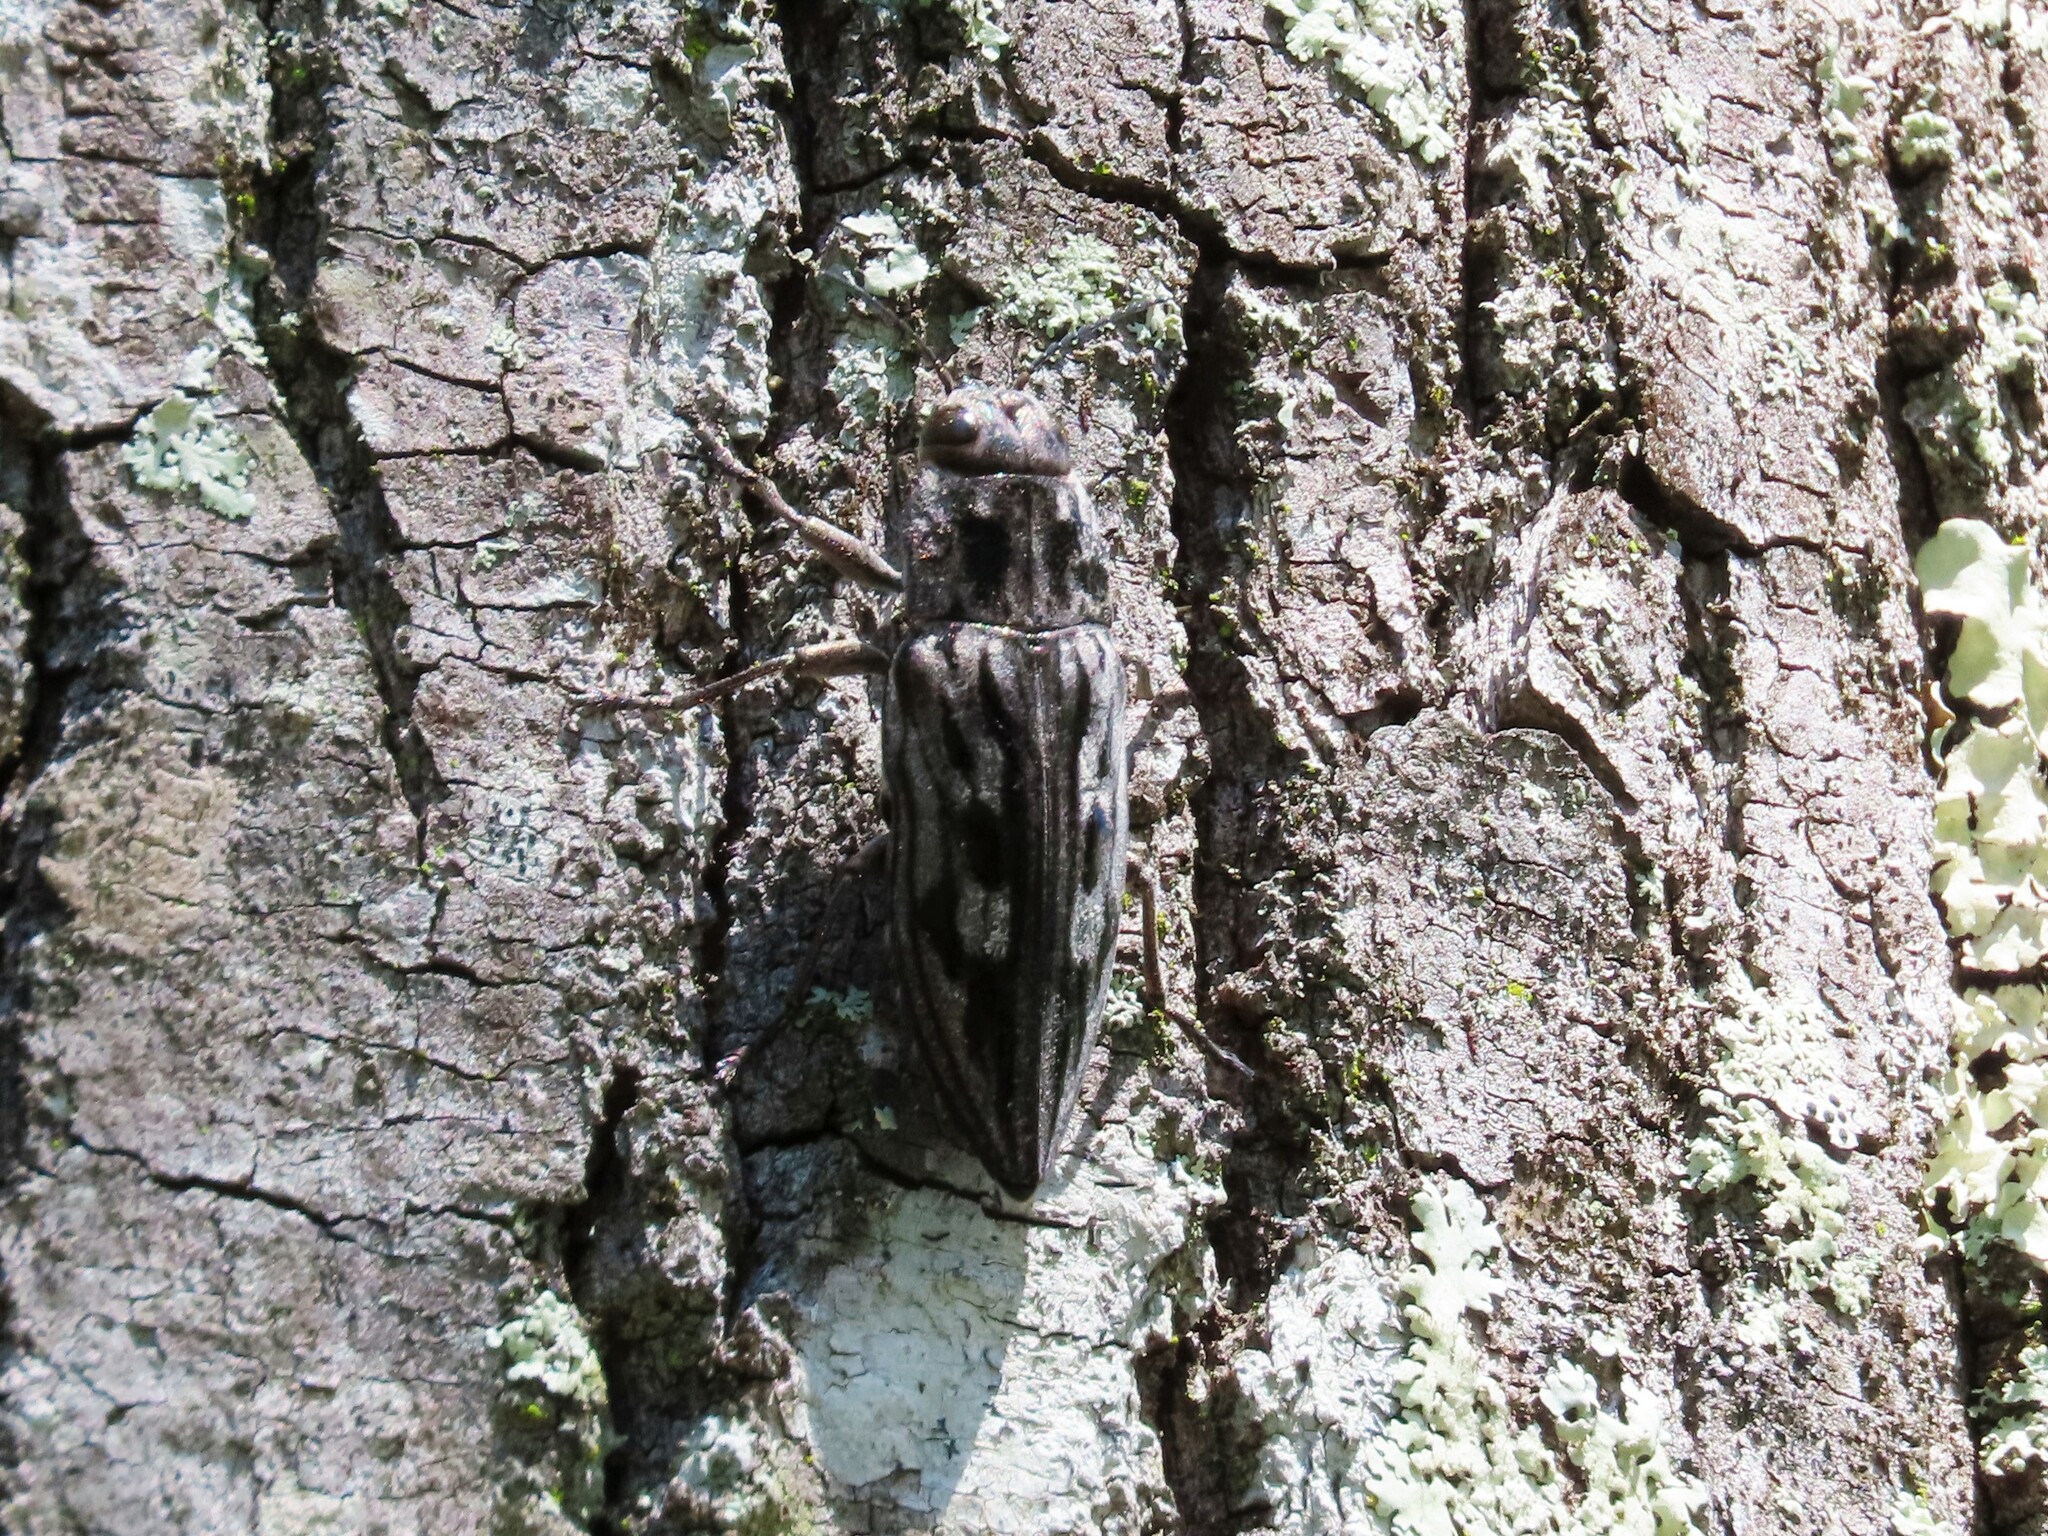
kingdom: Animalia
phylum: Arthropoda
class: Insecta
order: Coleoptera
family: Buprestidae
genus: Chalcophora
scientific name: Chalcophora virginiensis
